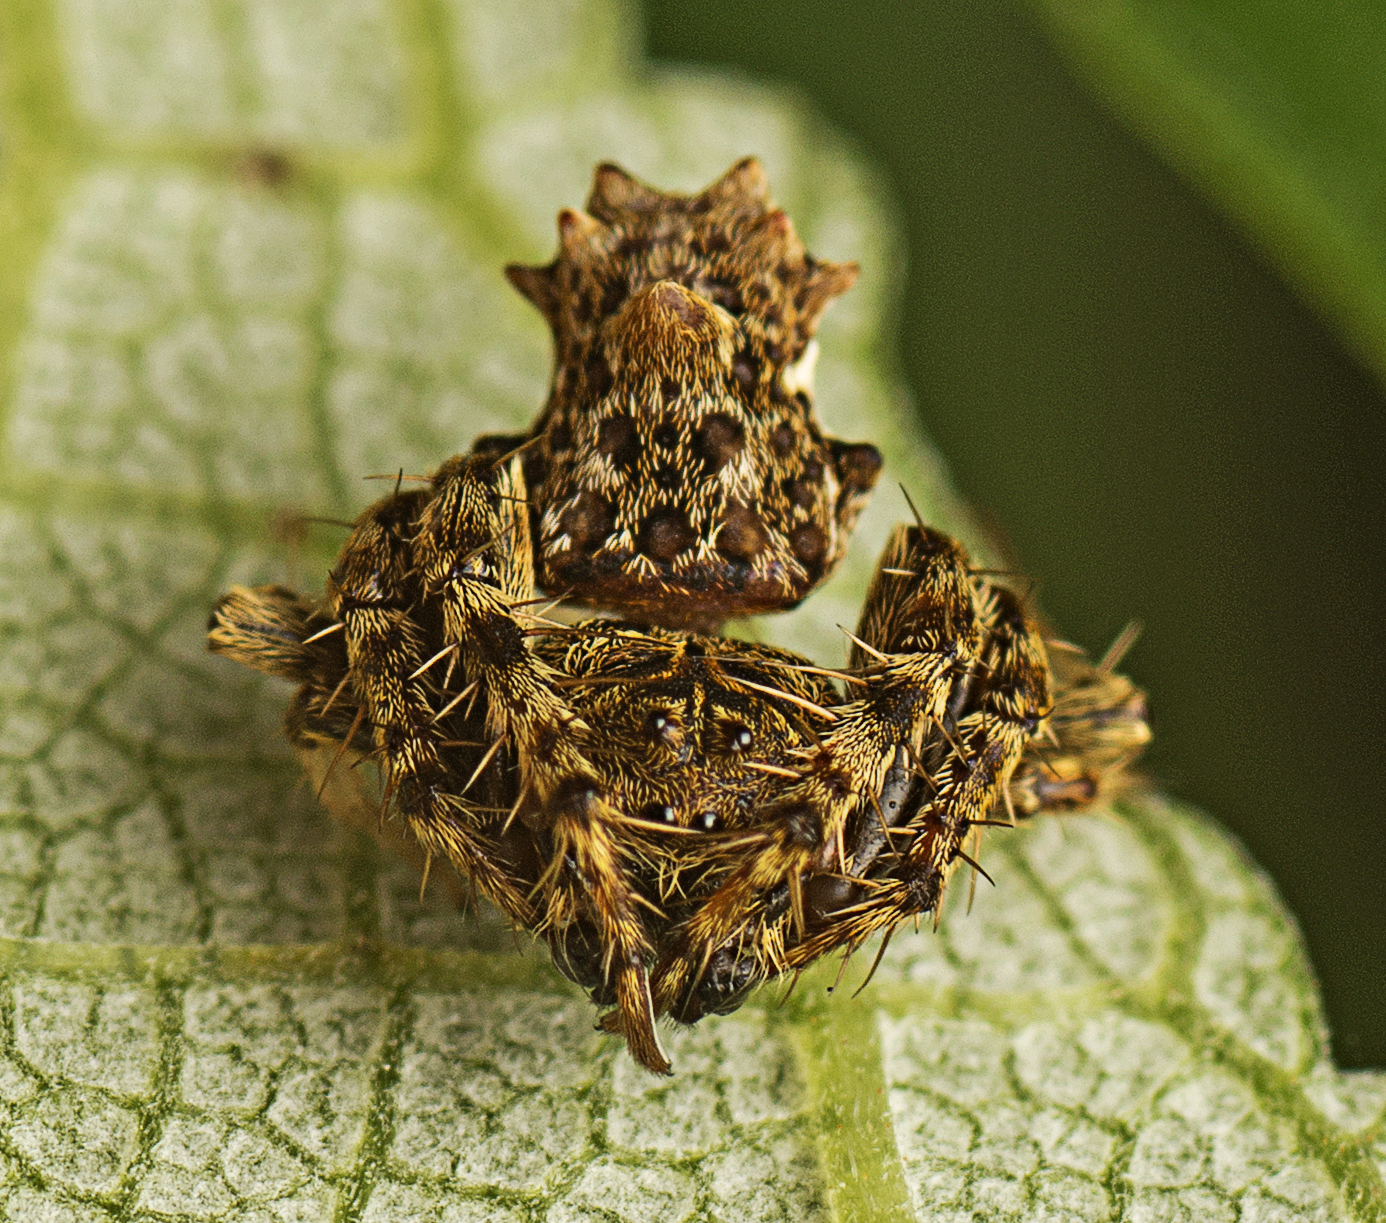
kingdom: Animalia
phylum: Arthropoda
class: Arachnida
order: Araneae
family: Arkyidae
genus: Arkys
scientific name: Arkys dilatatus
